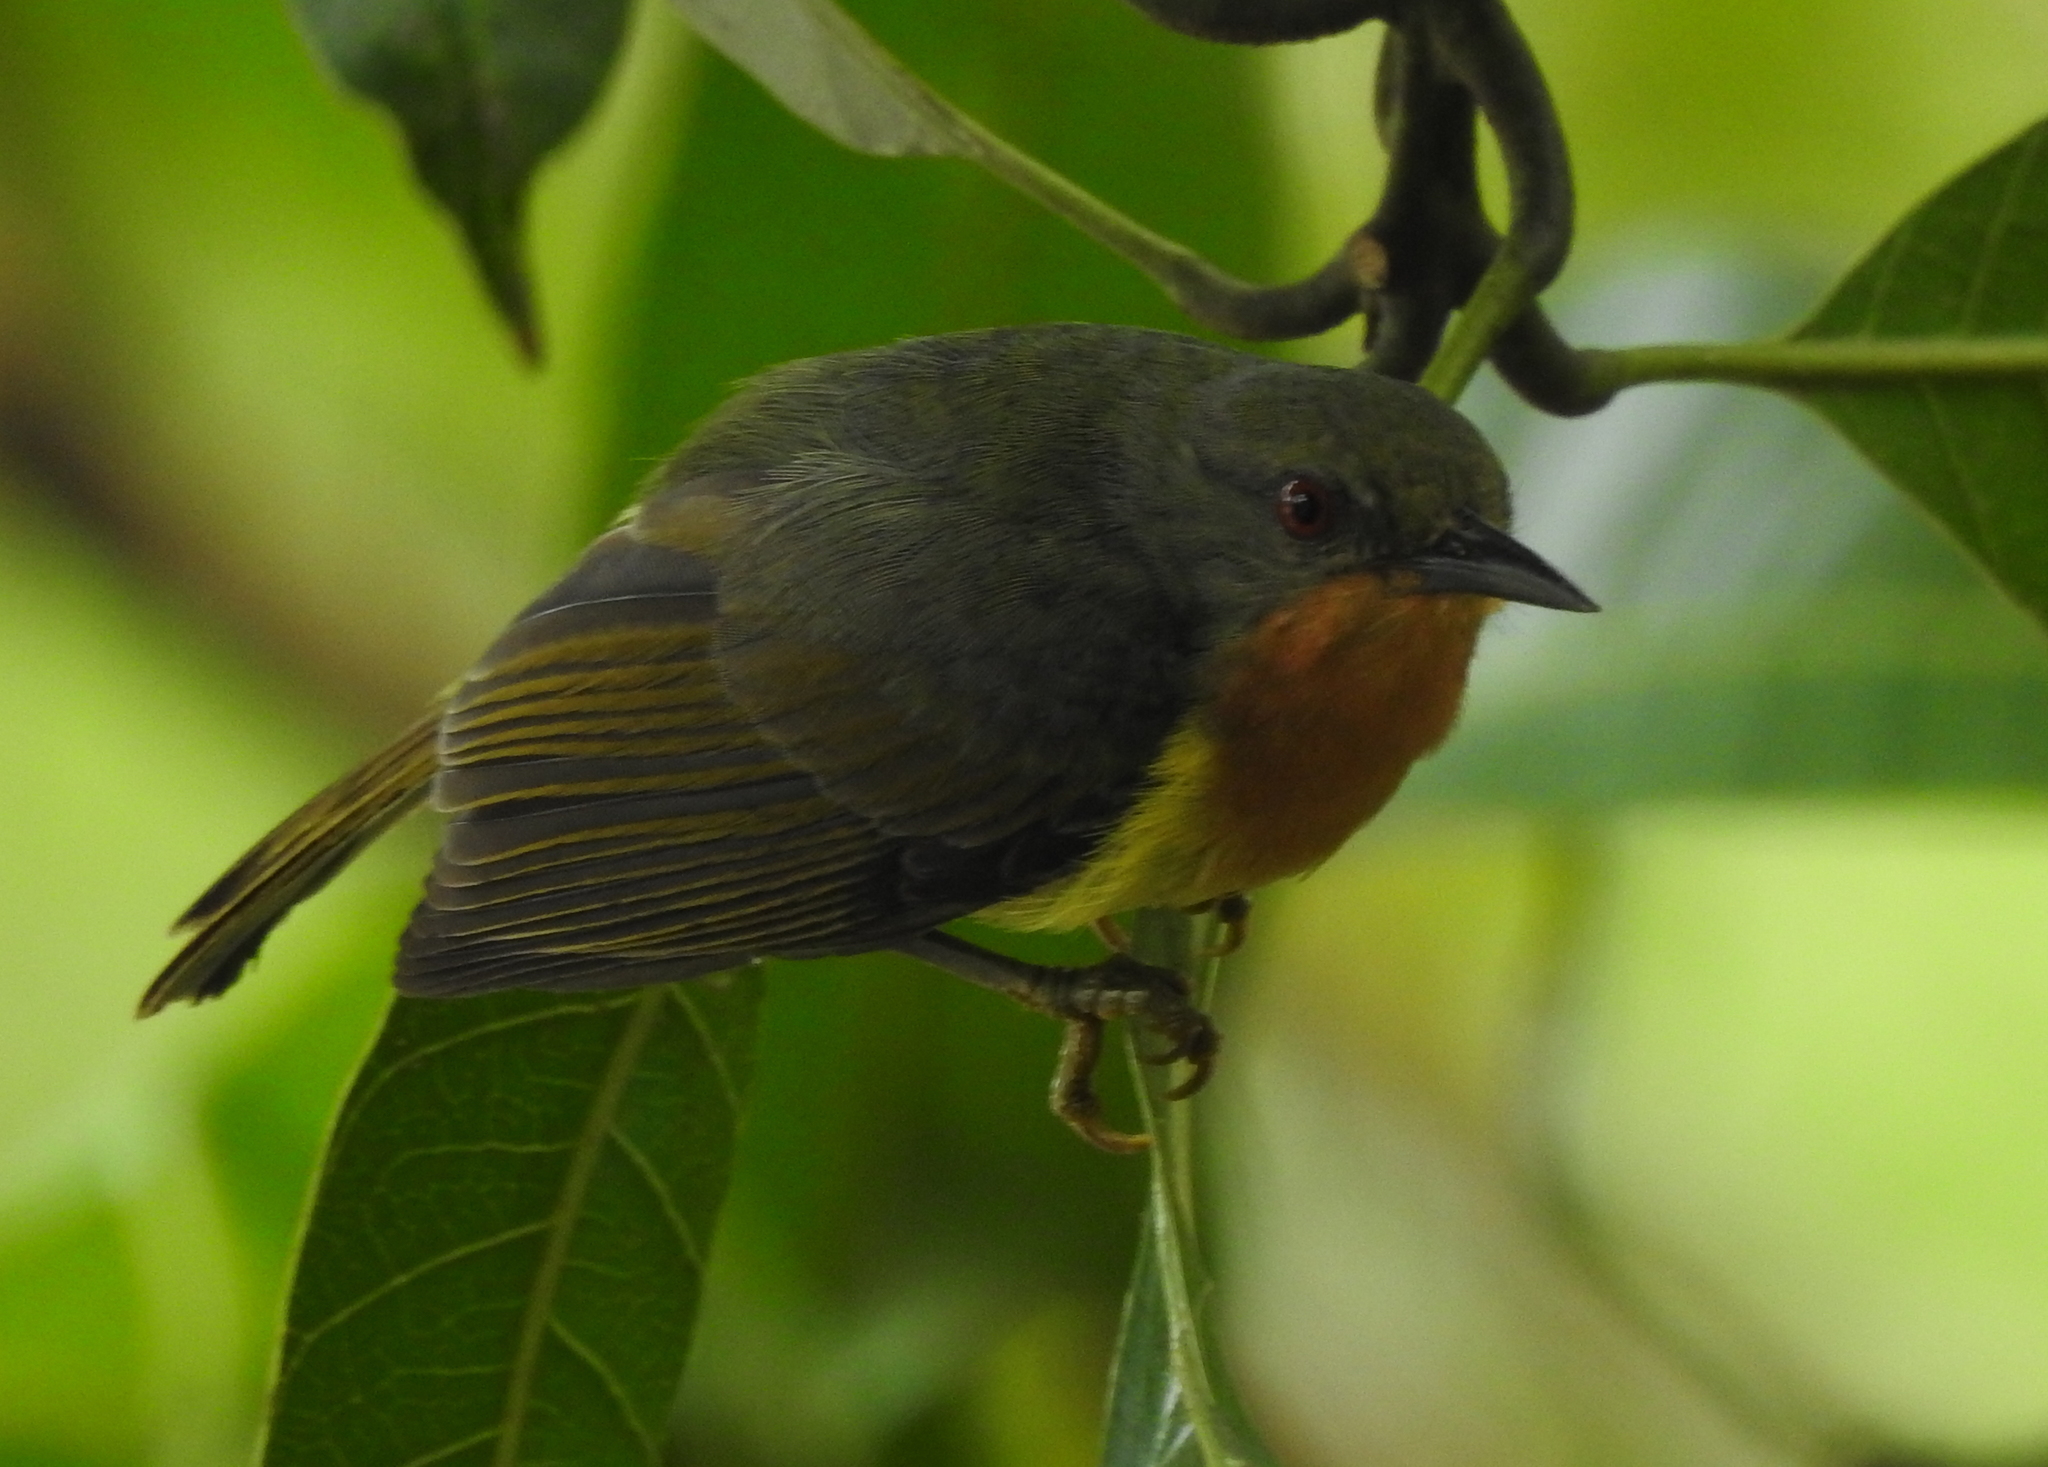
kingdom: Animalia
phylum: Chordata
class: Aves
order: Passeriformes
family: Nectariniidae
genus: Chalcoparia
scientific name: Chalcoparia singalensis
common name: Ruby-cheeked sunbird
